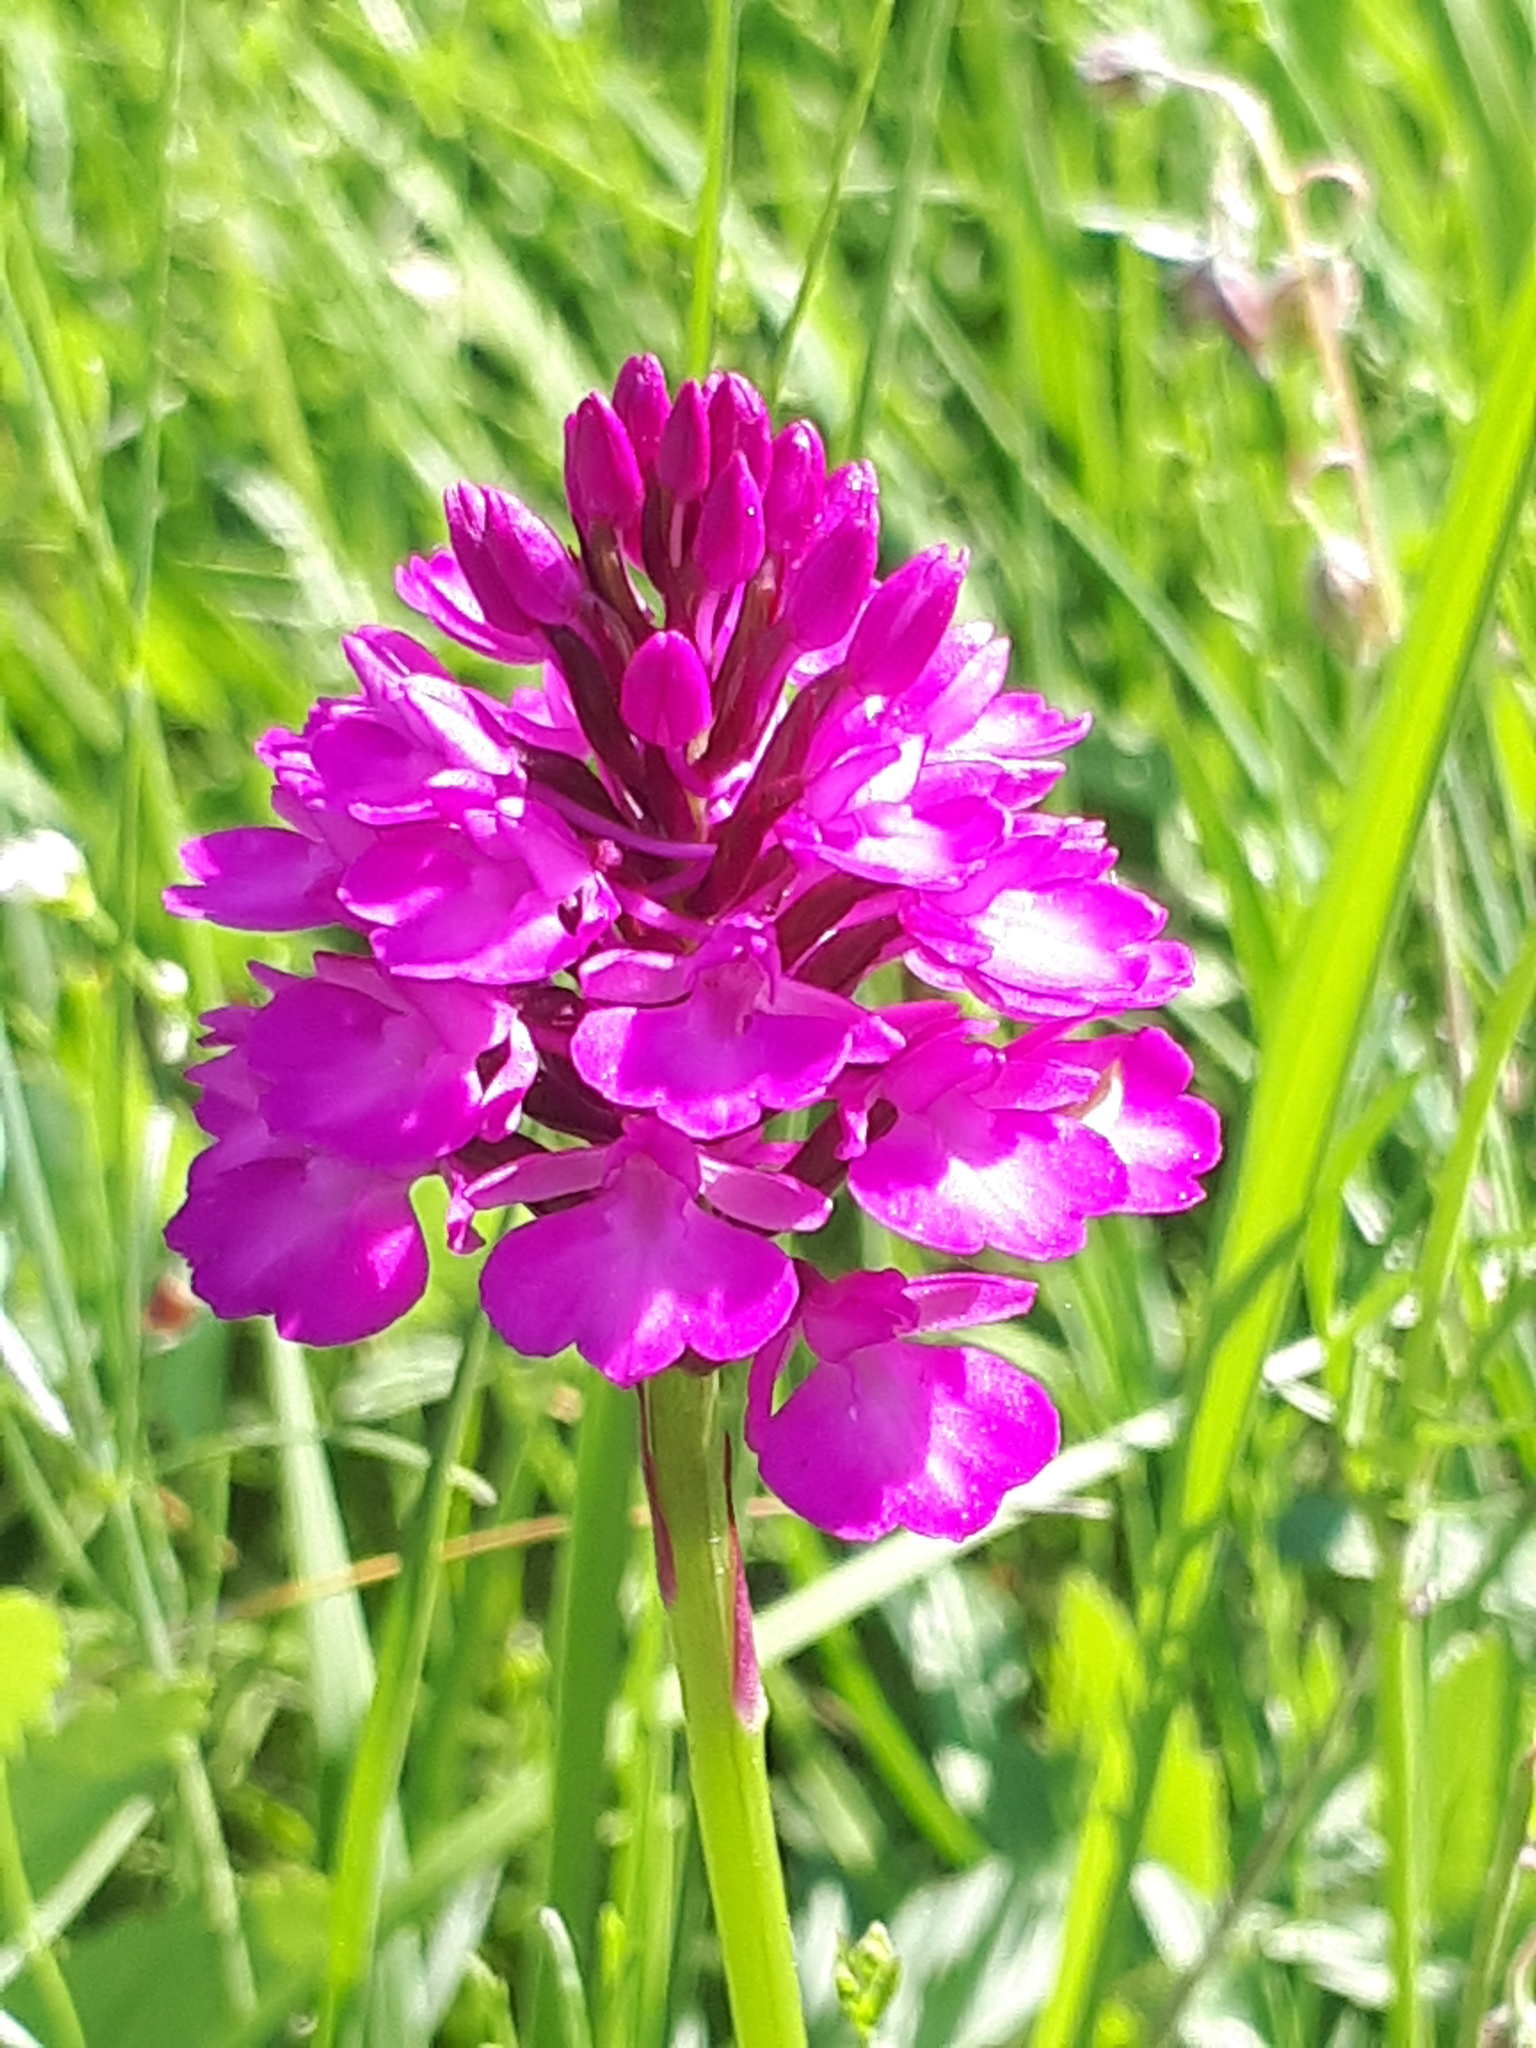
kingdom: Plantae
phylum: Tracheophyta
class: Liliopsida
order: Asparagales
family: Orchidaceae
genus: Anacamptis
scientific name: Anacamptis pyramidalis
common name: Pyramidal orchid
